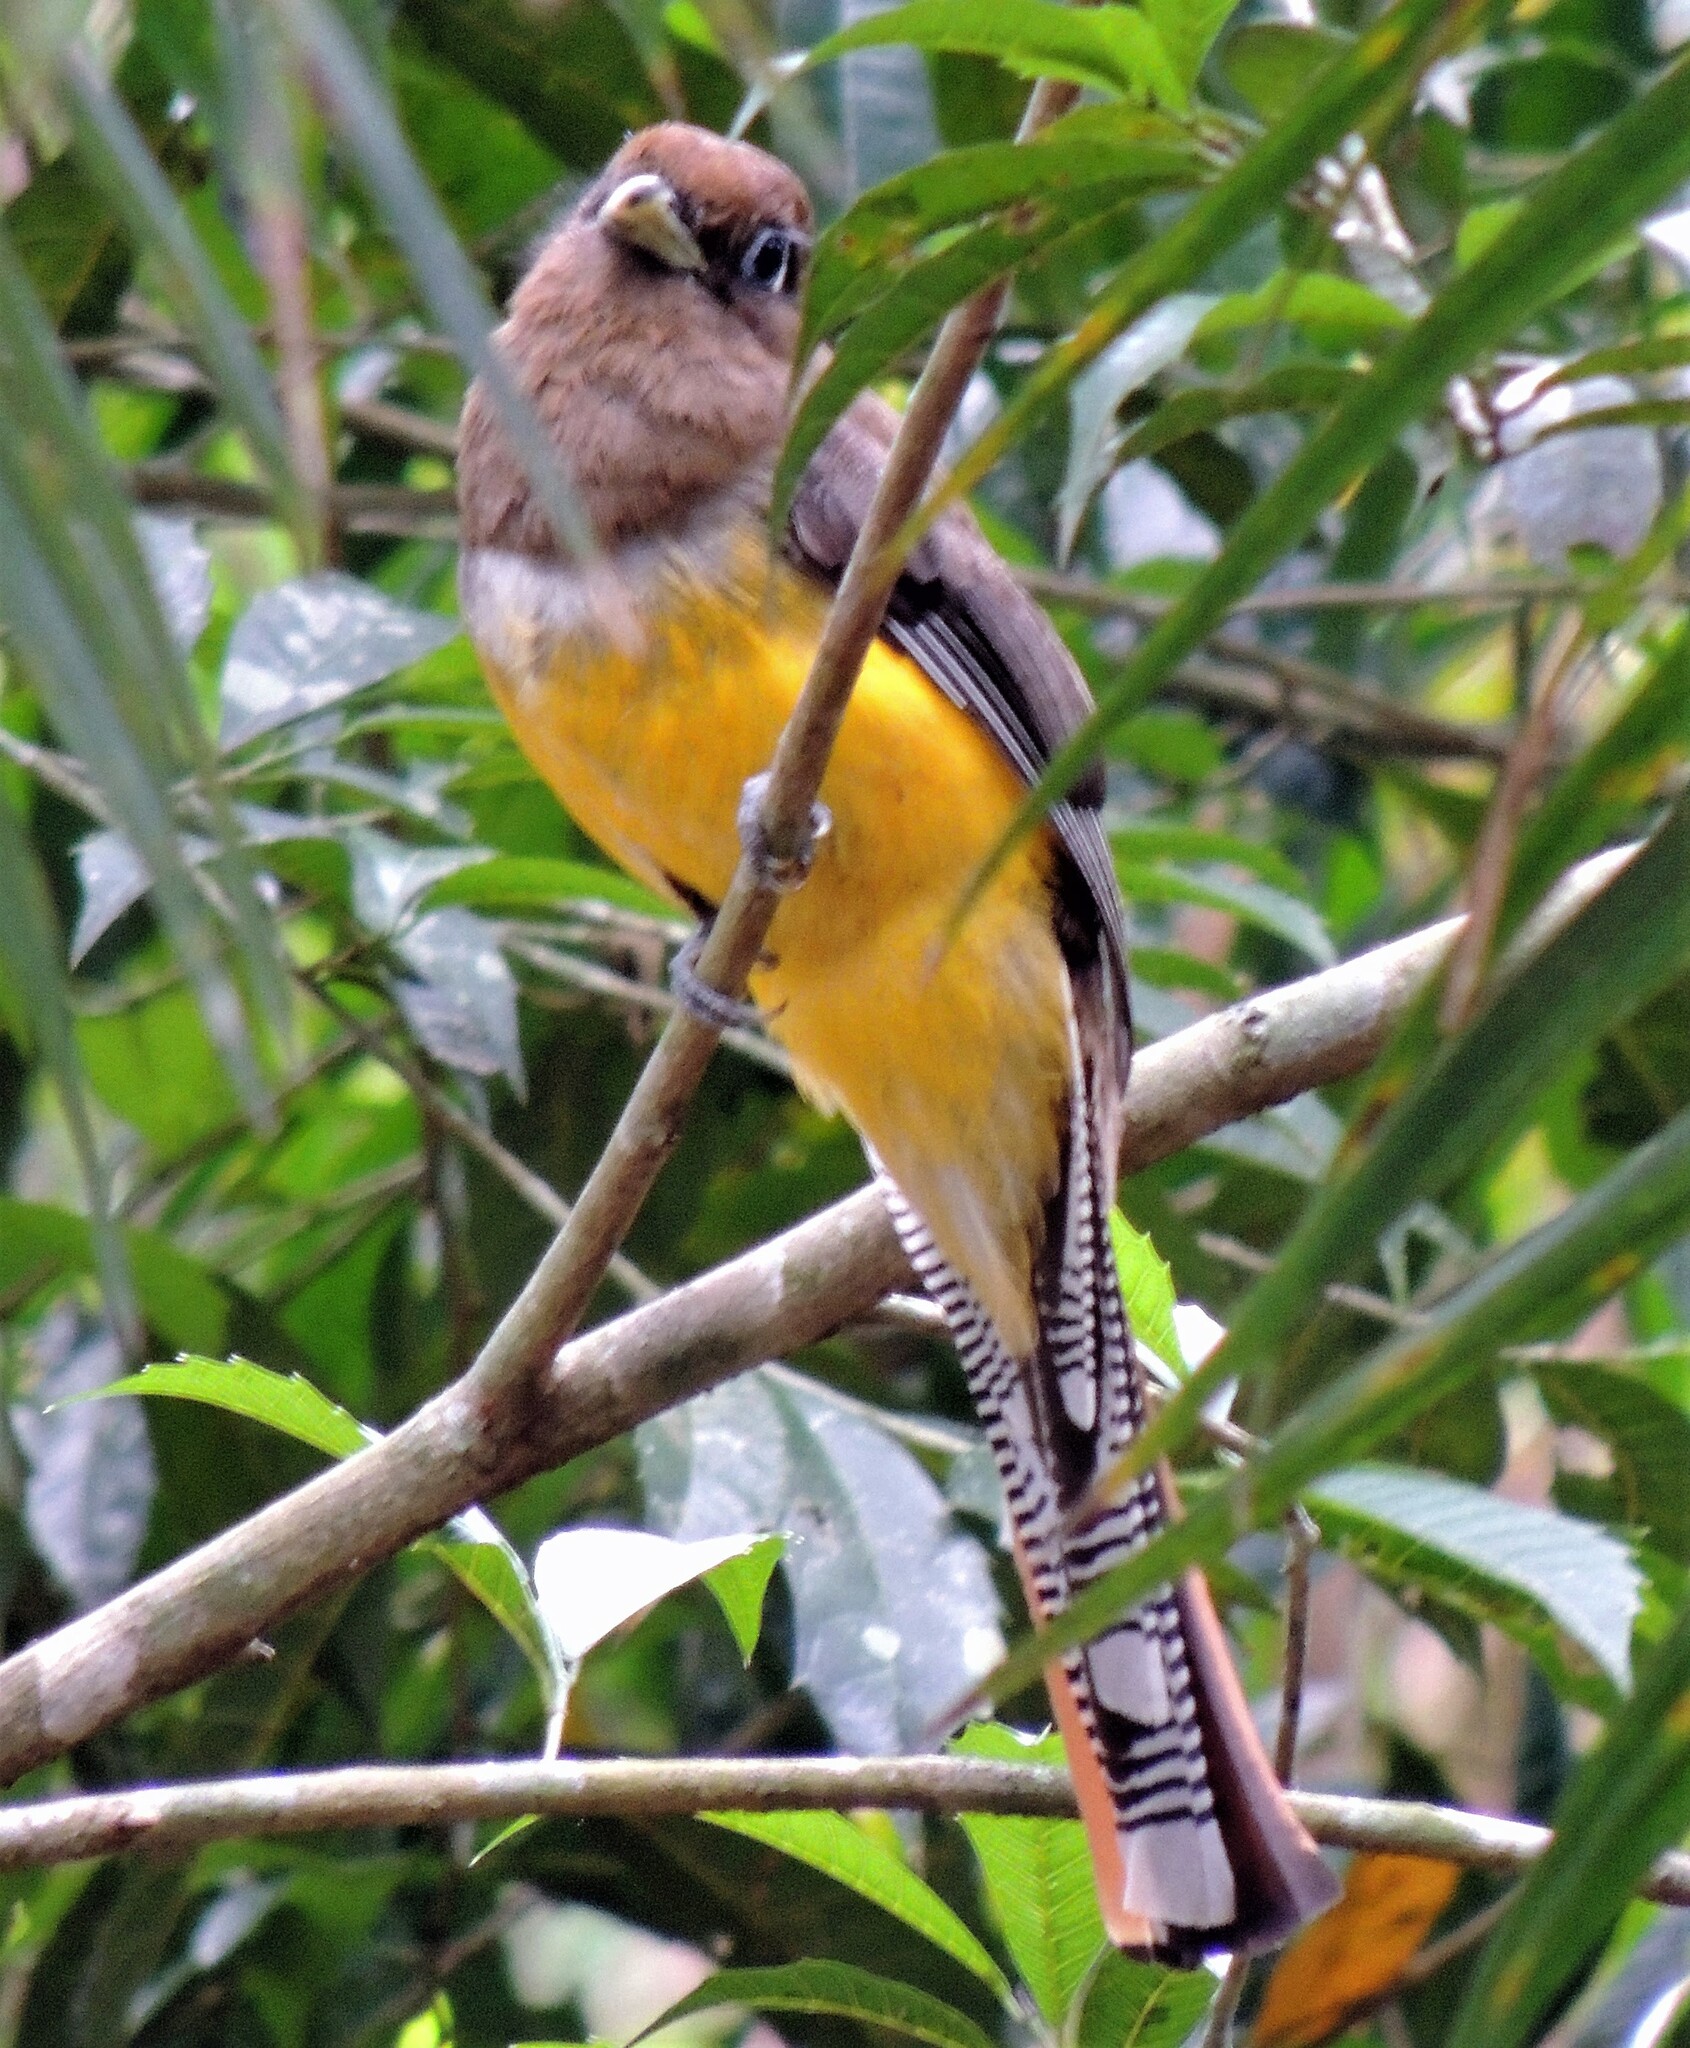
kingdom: Animalia
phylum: Chordata
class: Aves
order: Trogoniformes
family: Trogonidae
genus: Trogon
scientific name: Trogon rufus
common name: Black-throated trogon
